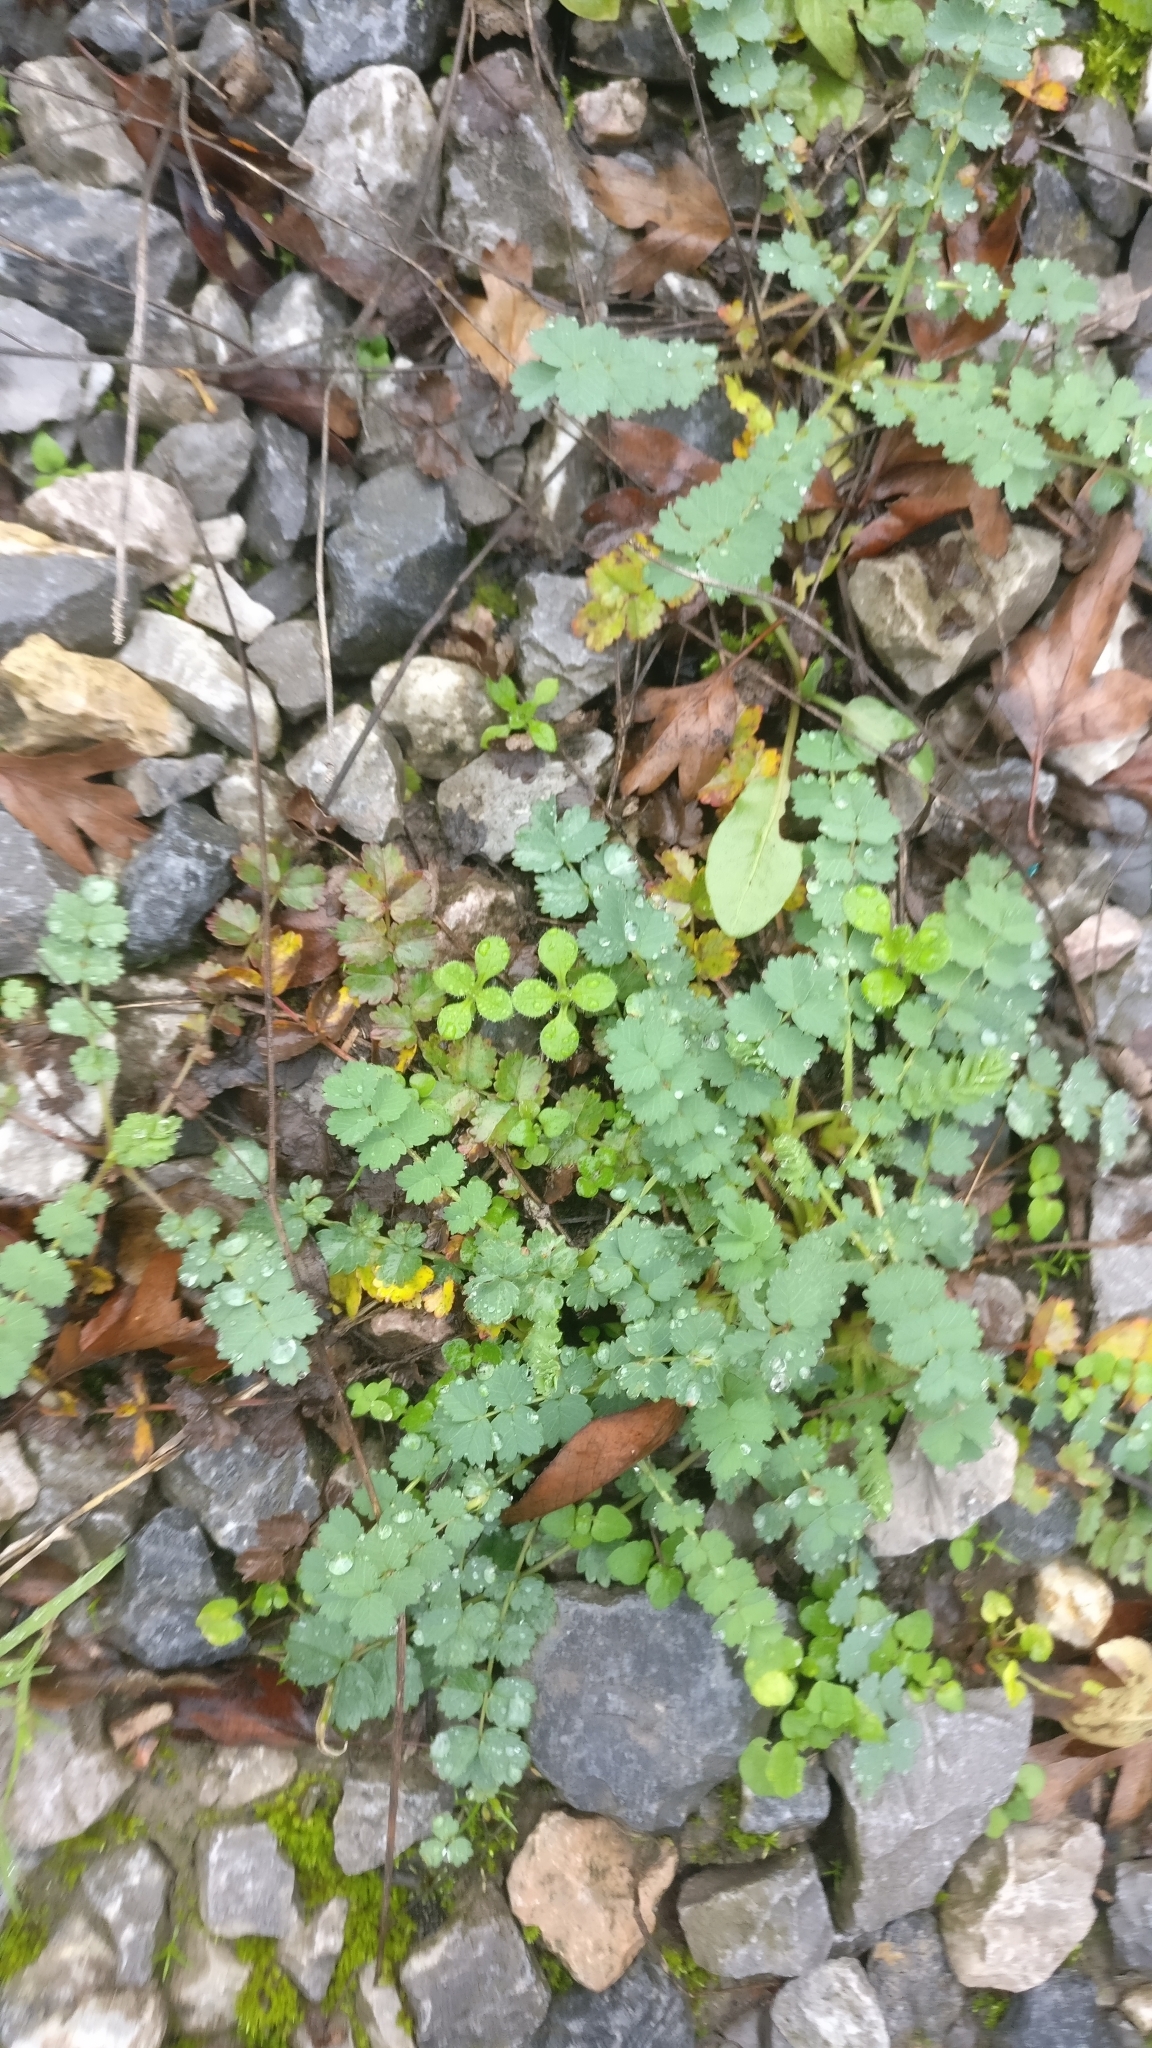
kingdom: Plantae
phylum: Tracheophyta
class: Magnoliopsida
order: Rosales
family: Rosaceae
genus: Poterium
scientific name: Poterium sanguisorba
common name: Salad burnet
